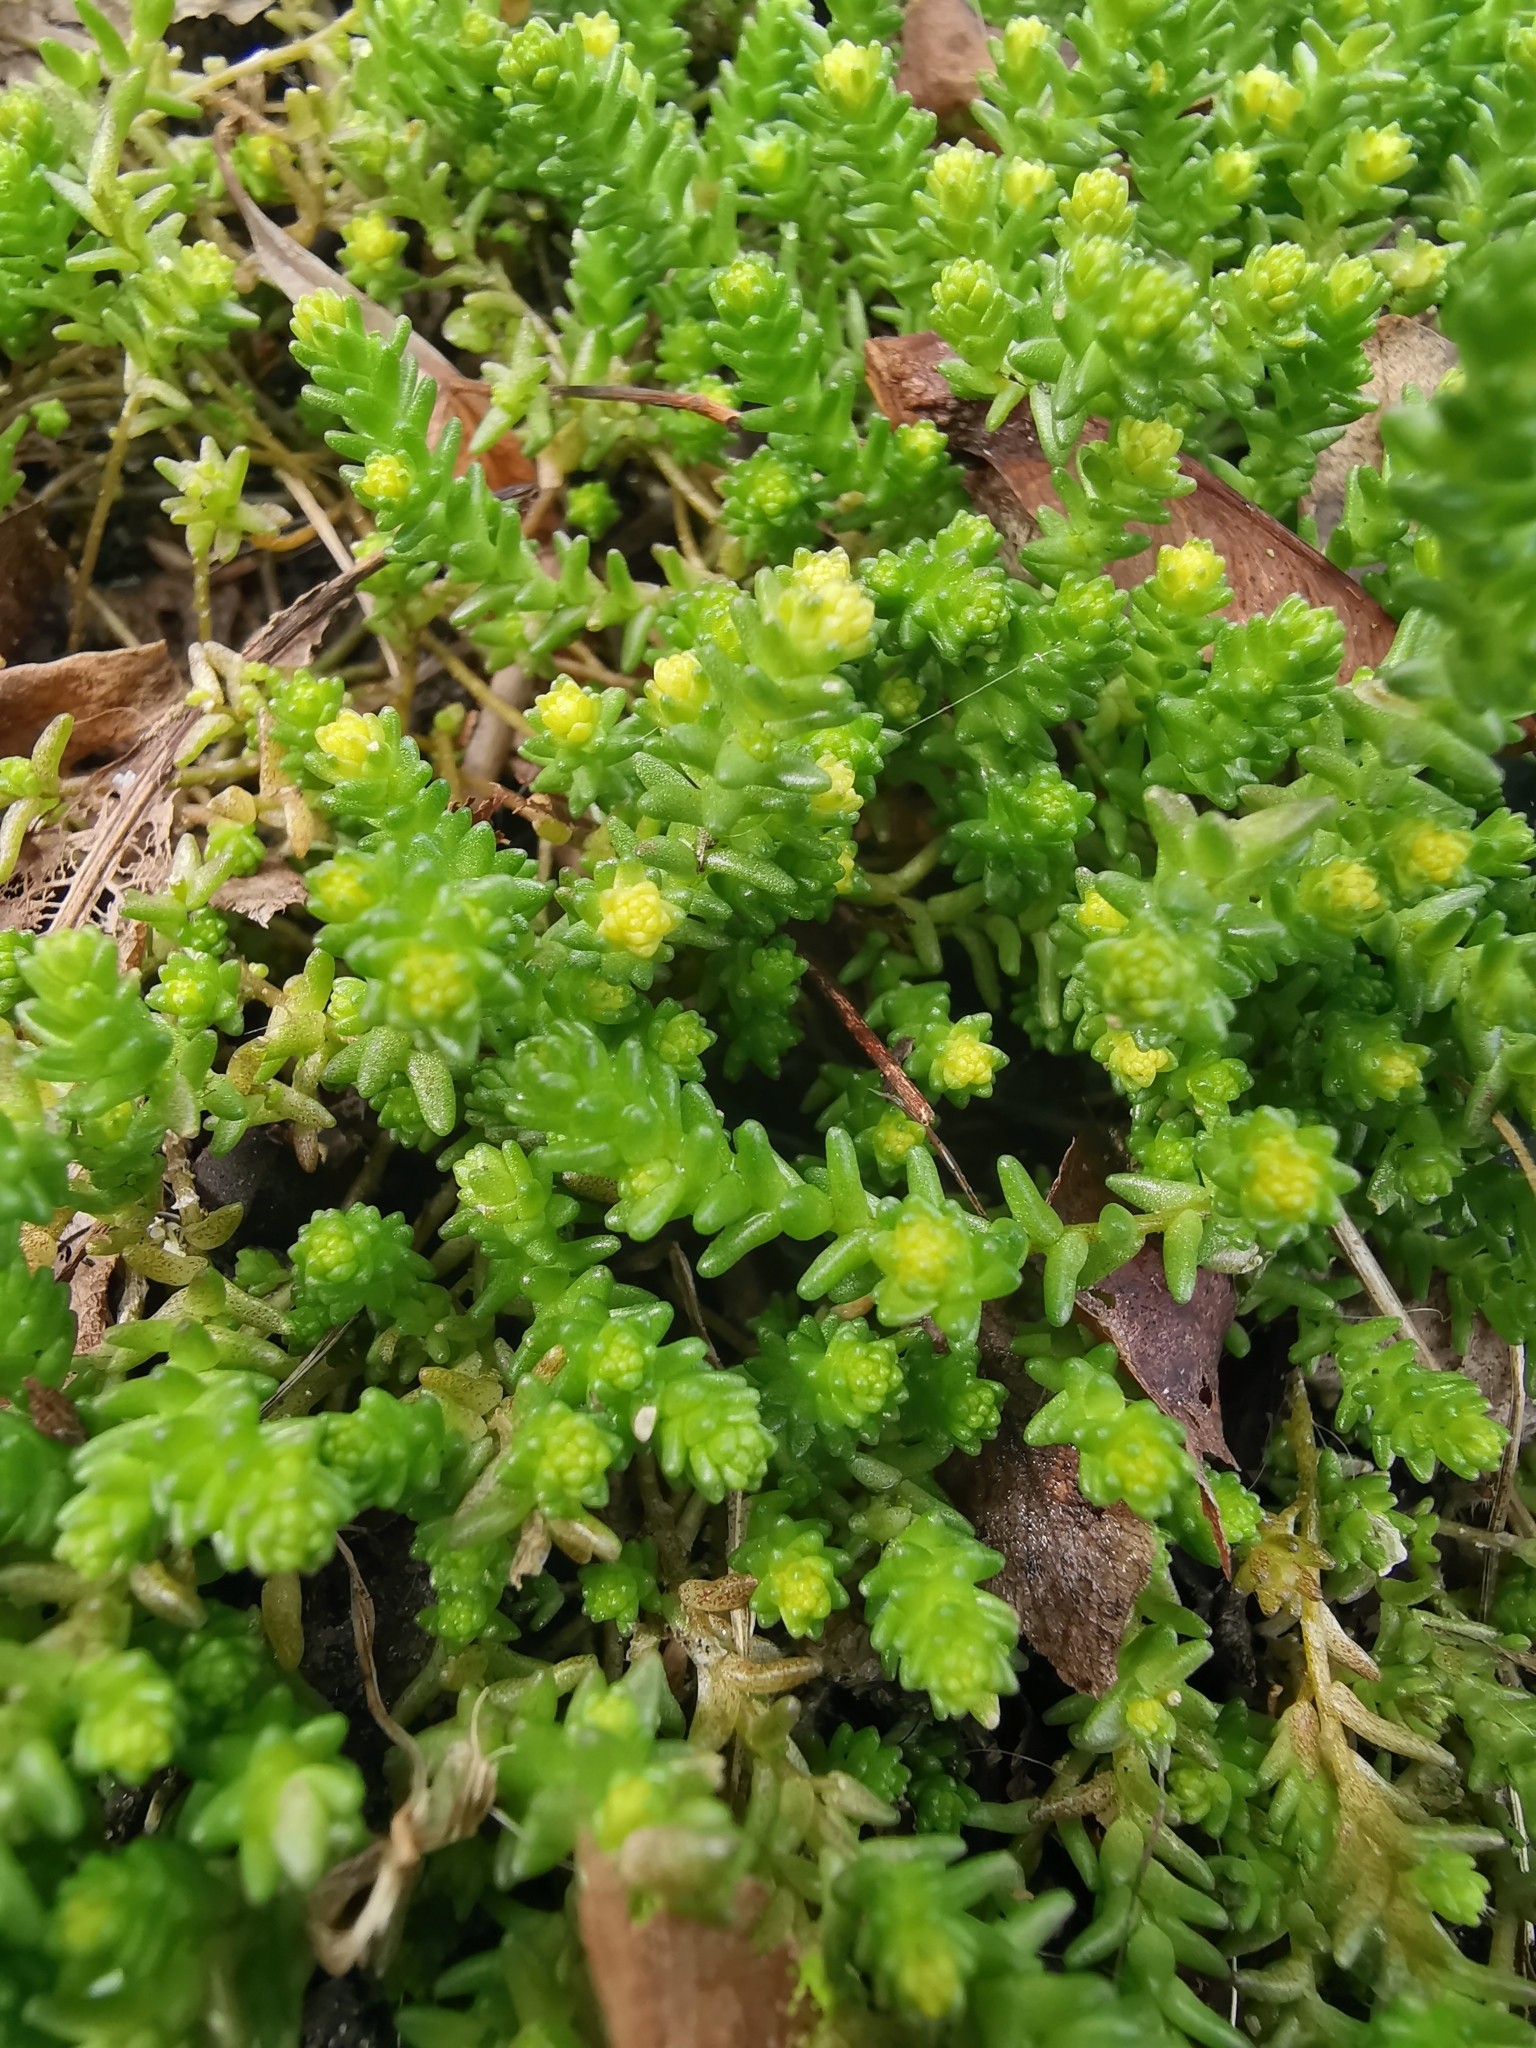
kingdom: Plantae
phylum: Tracheophyta
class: Magnoliopsida
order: Saxifragales
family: Crassulaceae
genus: Sedum
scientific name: Sedum acre
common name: Biting stonecrop
